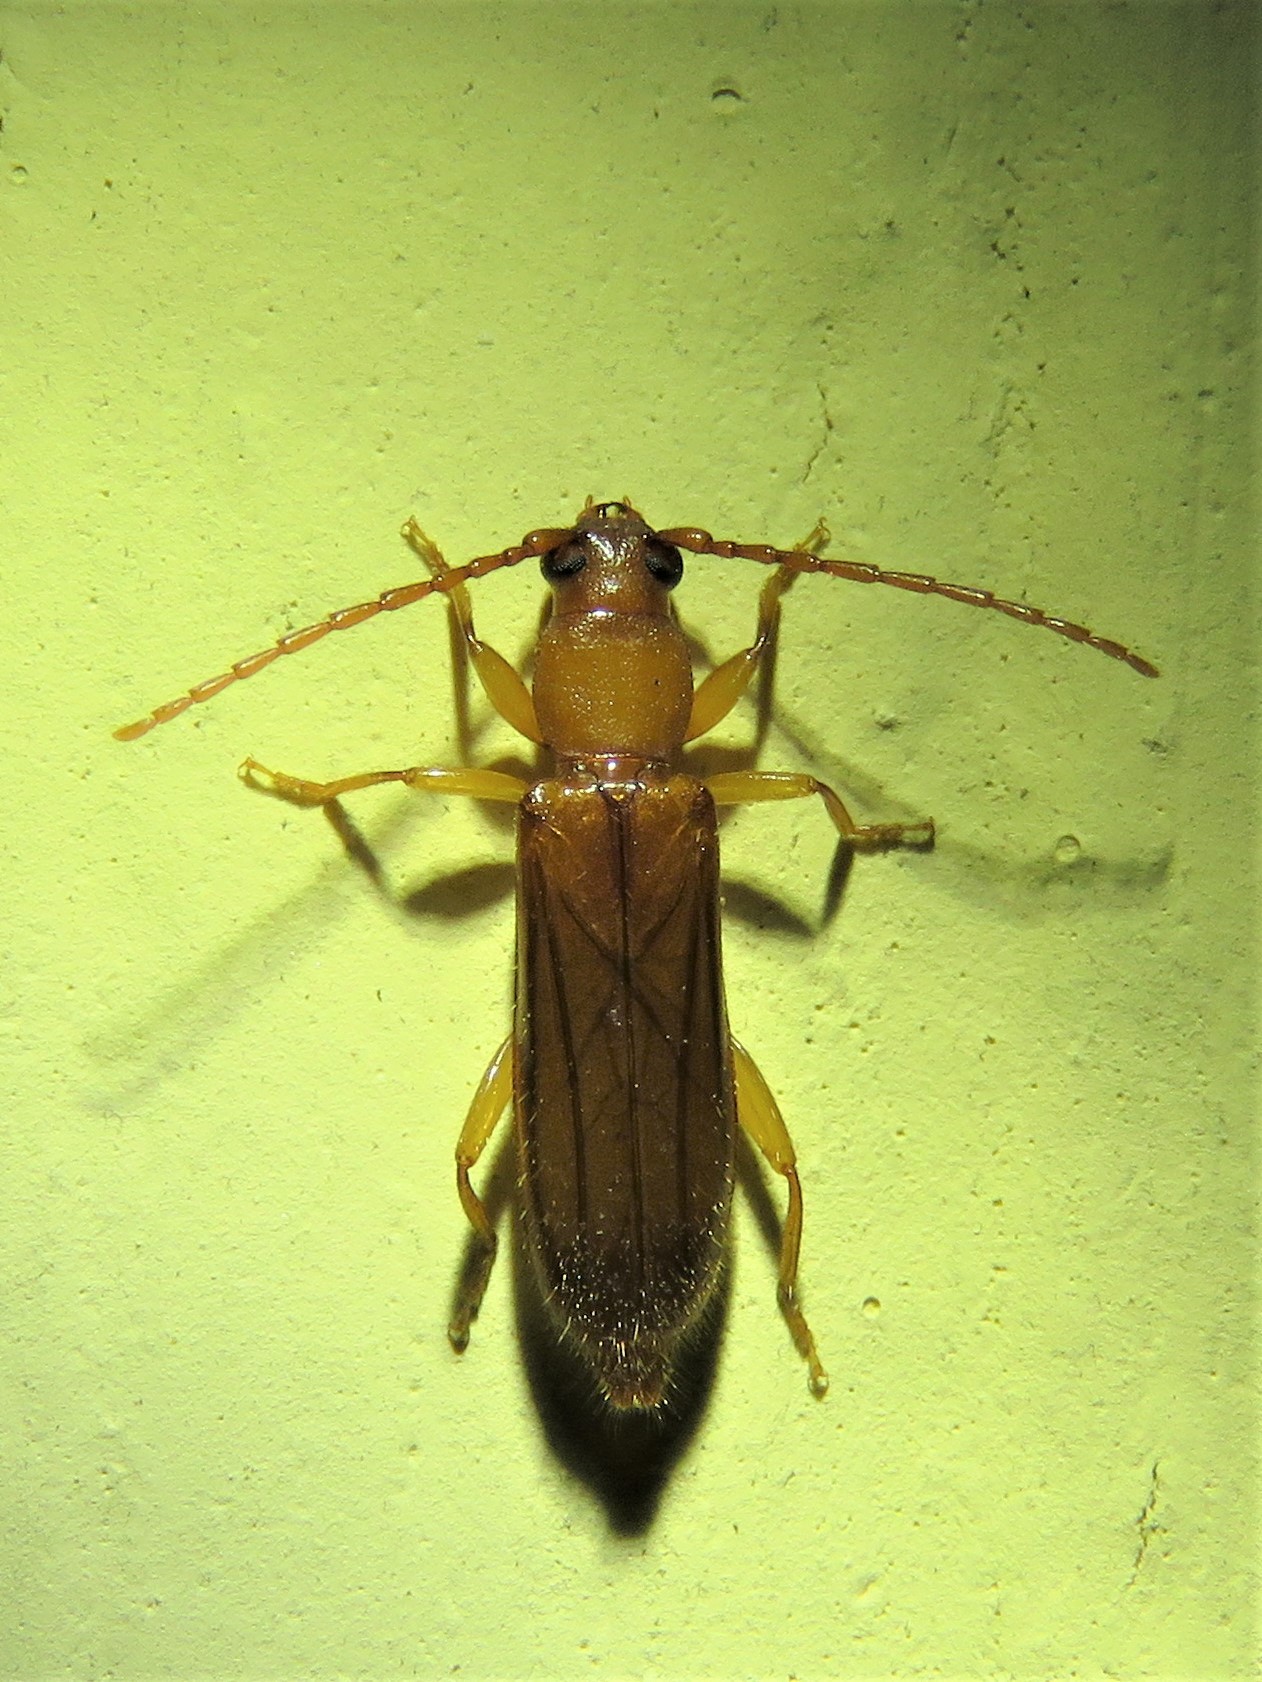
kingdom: Animalia
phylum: Arthropoda
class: Insecta
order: Coleoptera
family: Cerambycidae
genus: Smodicum
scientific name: Smodicum cucujiforme
